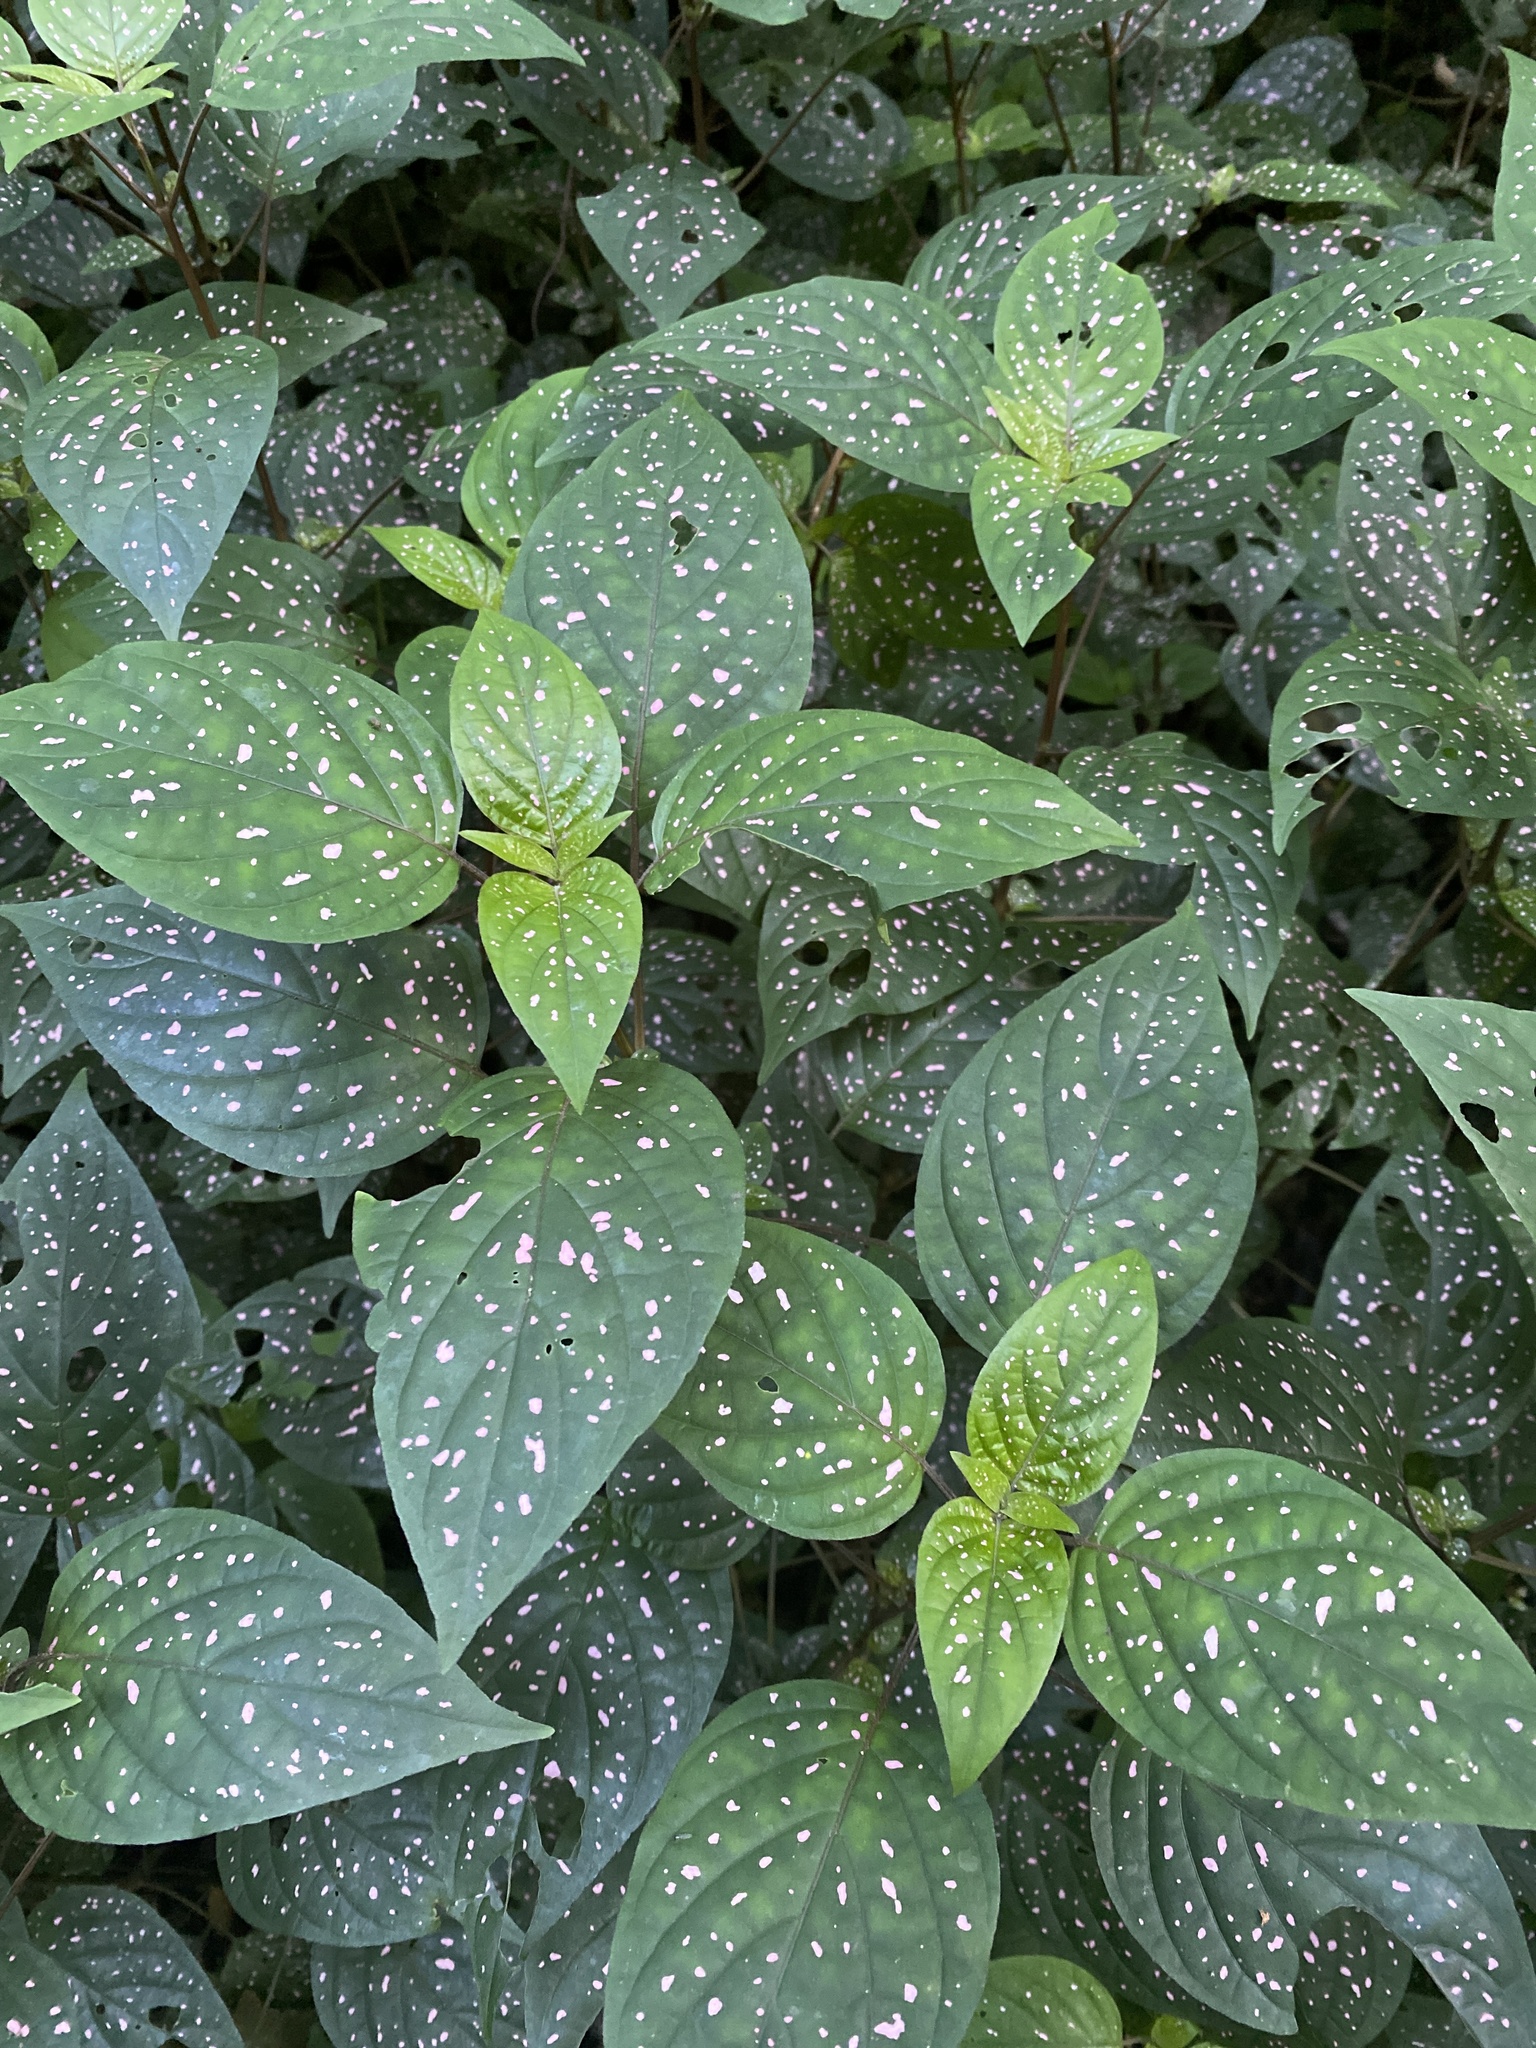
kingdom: Plantae
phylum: Tracheophyta
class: Magnoliopsida
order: Lamiales
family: Acanthaceae
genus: Hypoestes
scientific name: Hypoestes phyllostachya
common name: Polkadot-plant
